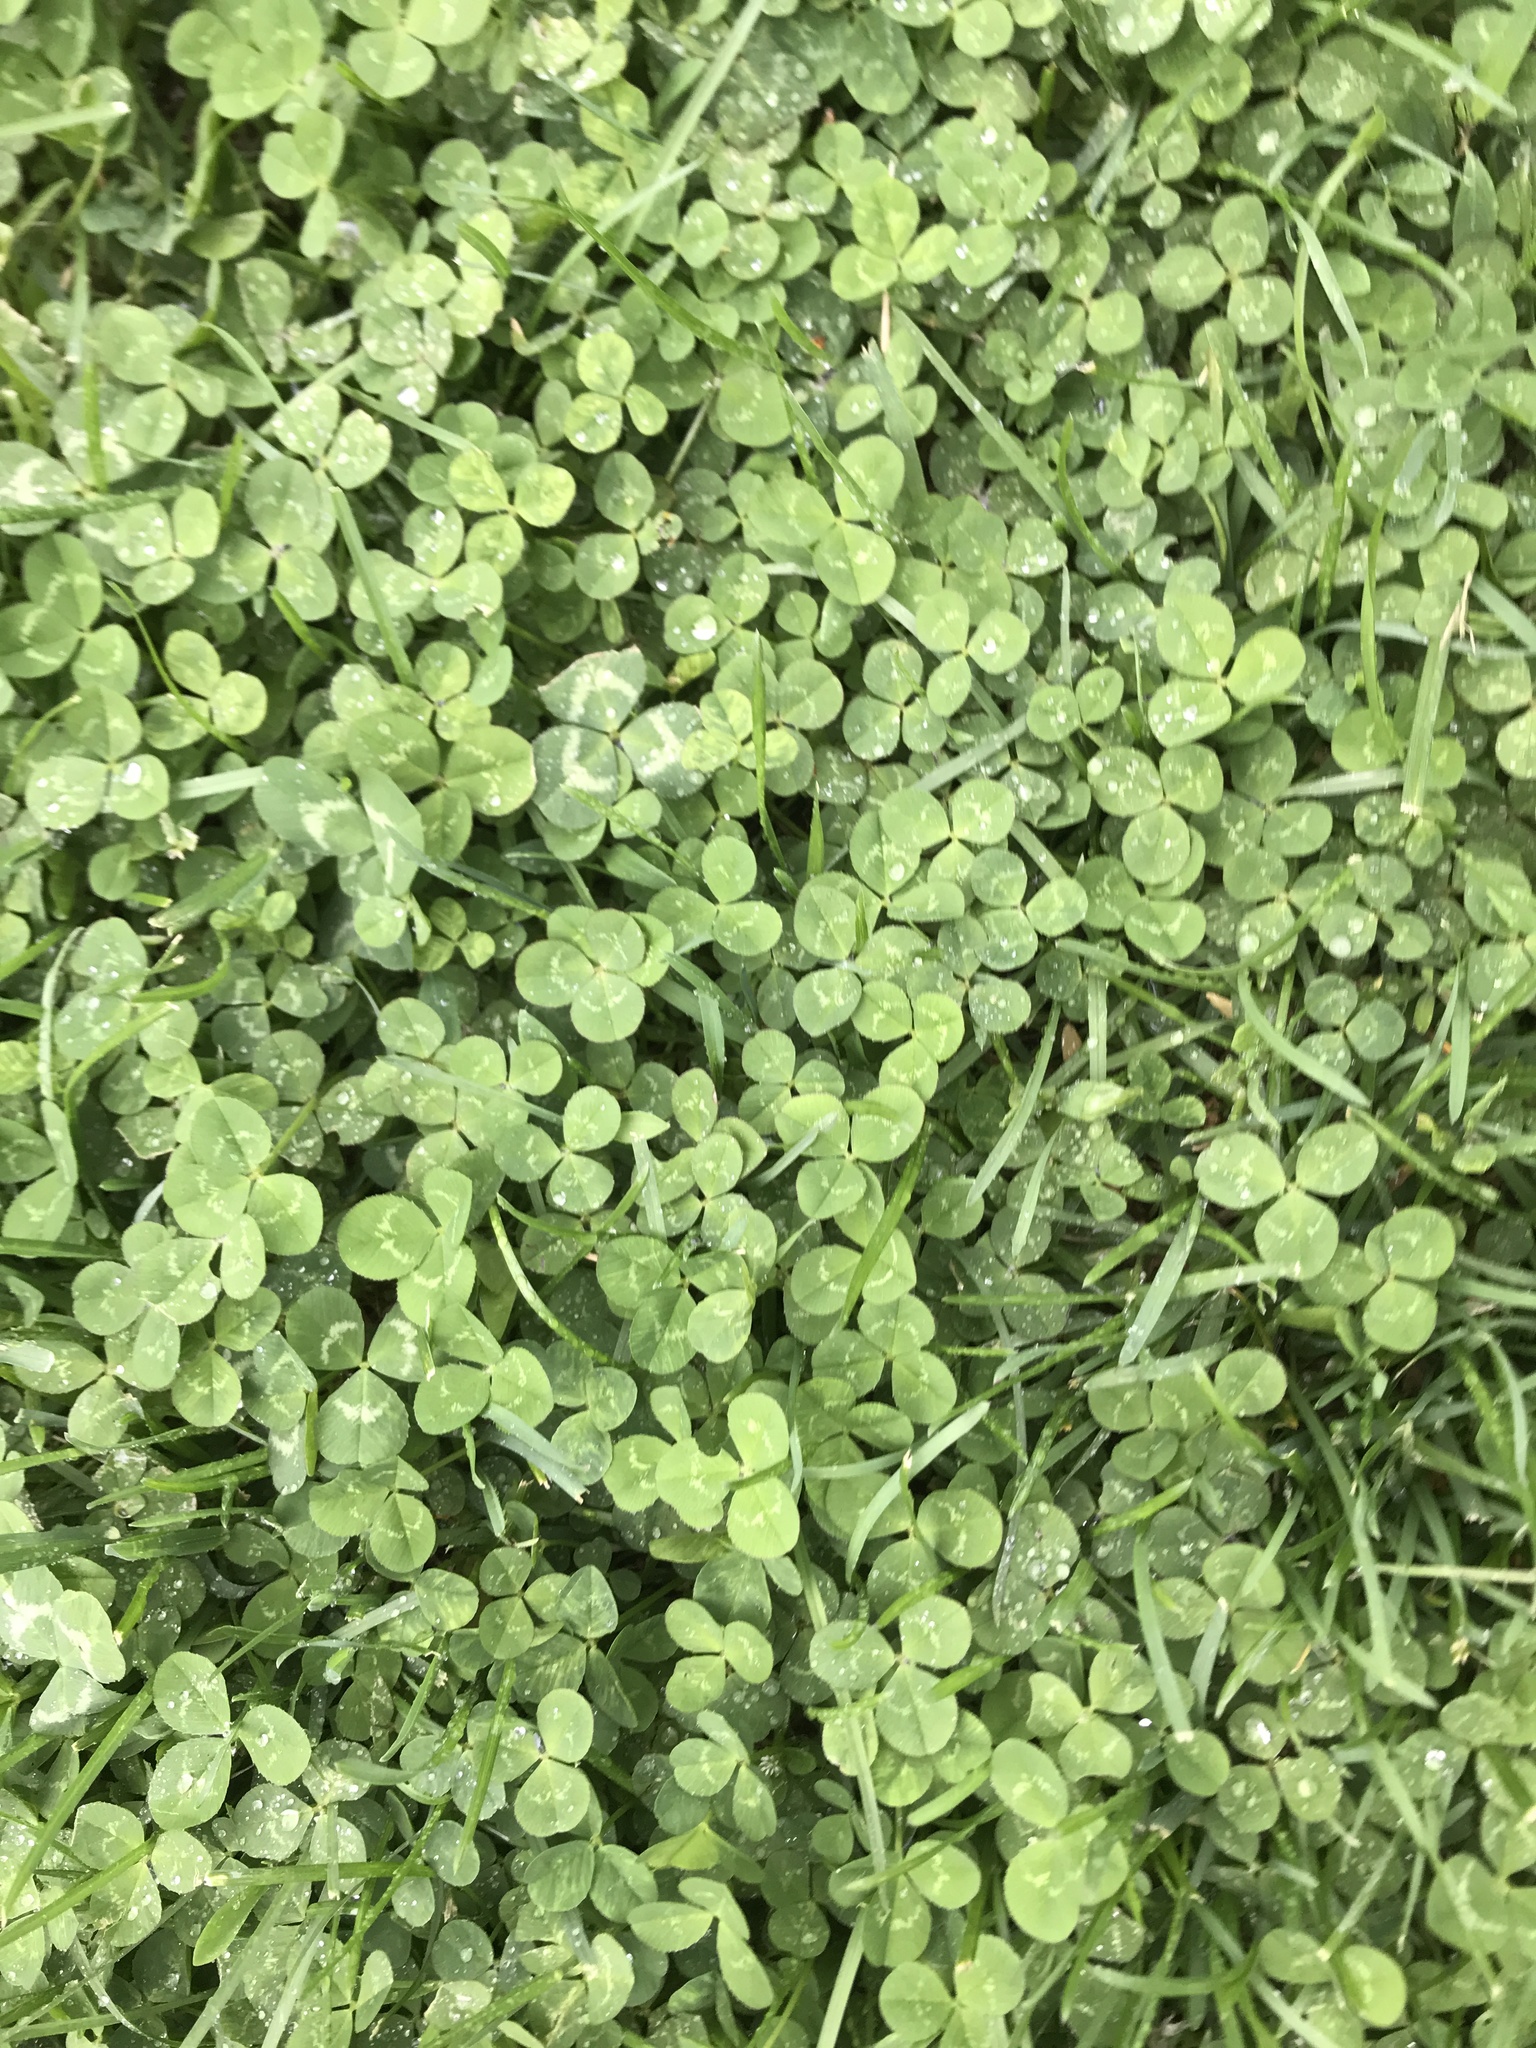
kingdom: Plantae
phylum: Tracheophyta
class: Magnoliopsida
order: Fabales
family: Fabaceae
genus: Trifolium
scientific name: Trifolium repens
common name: White clover
